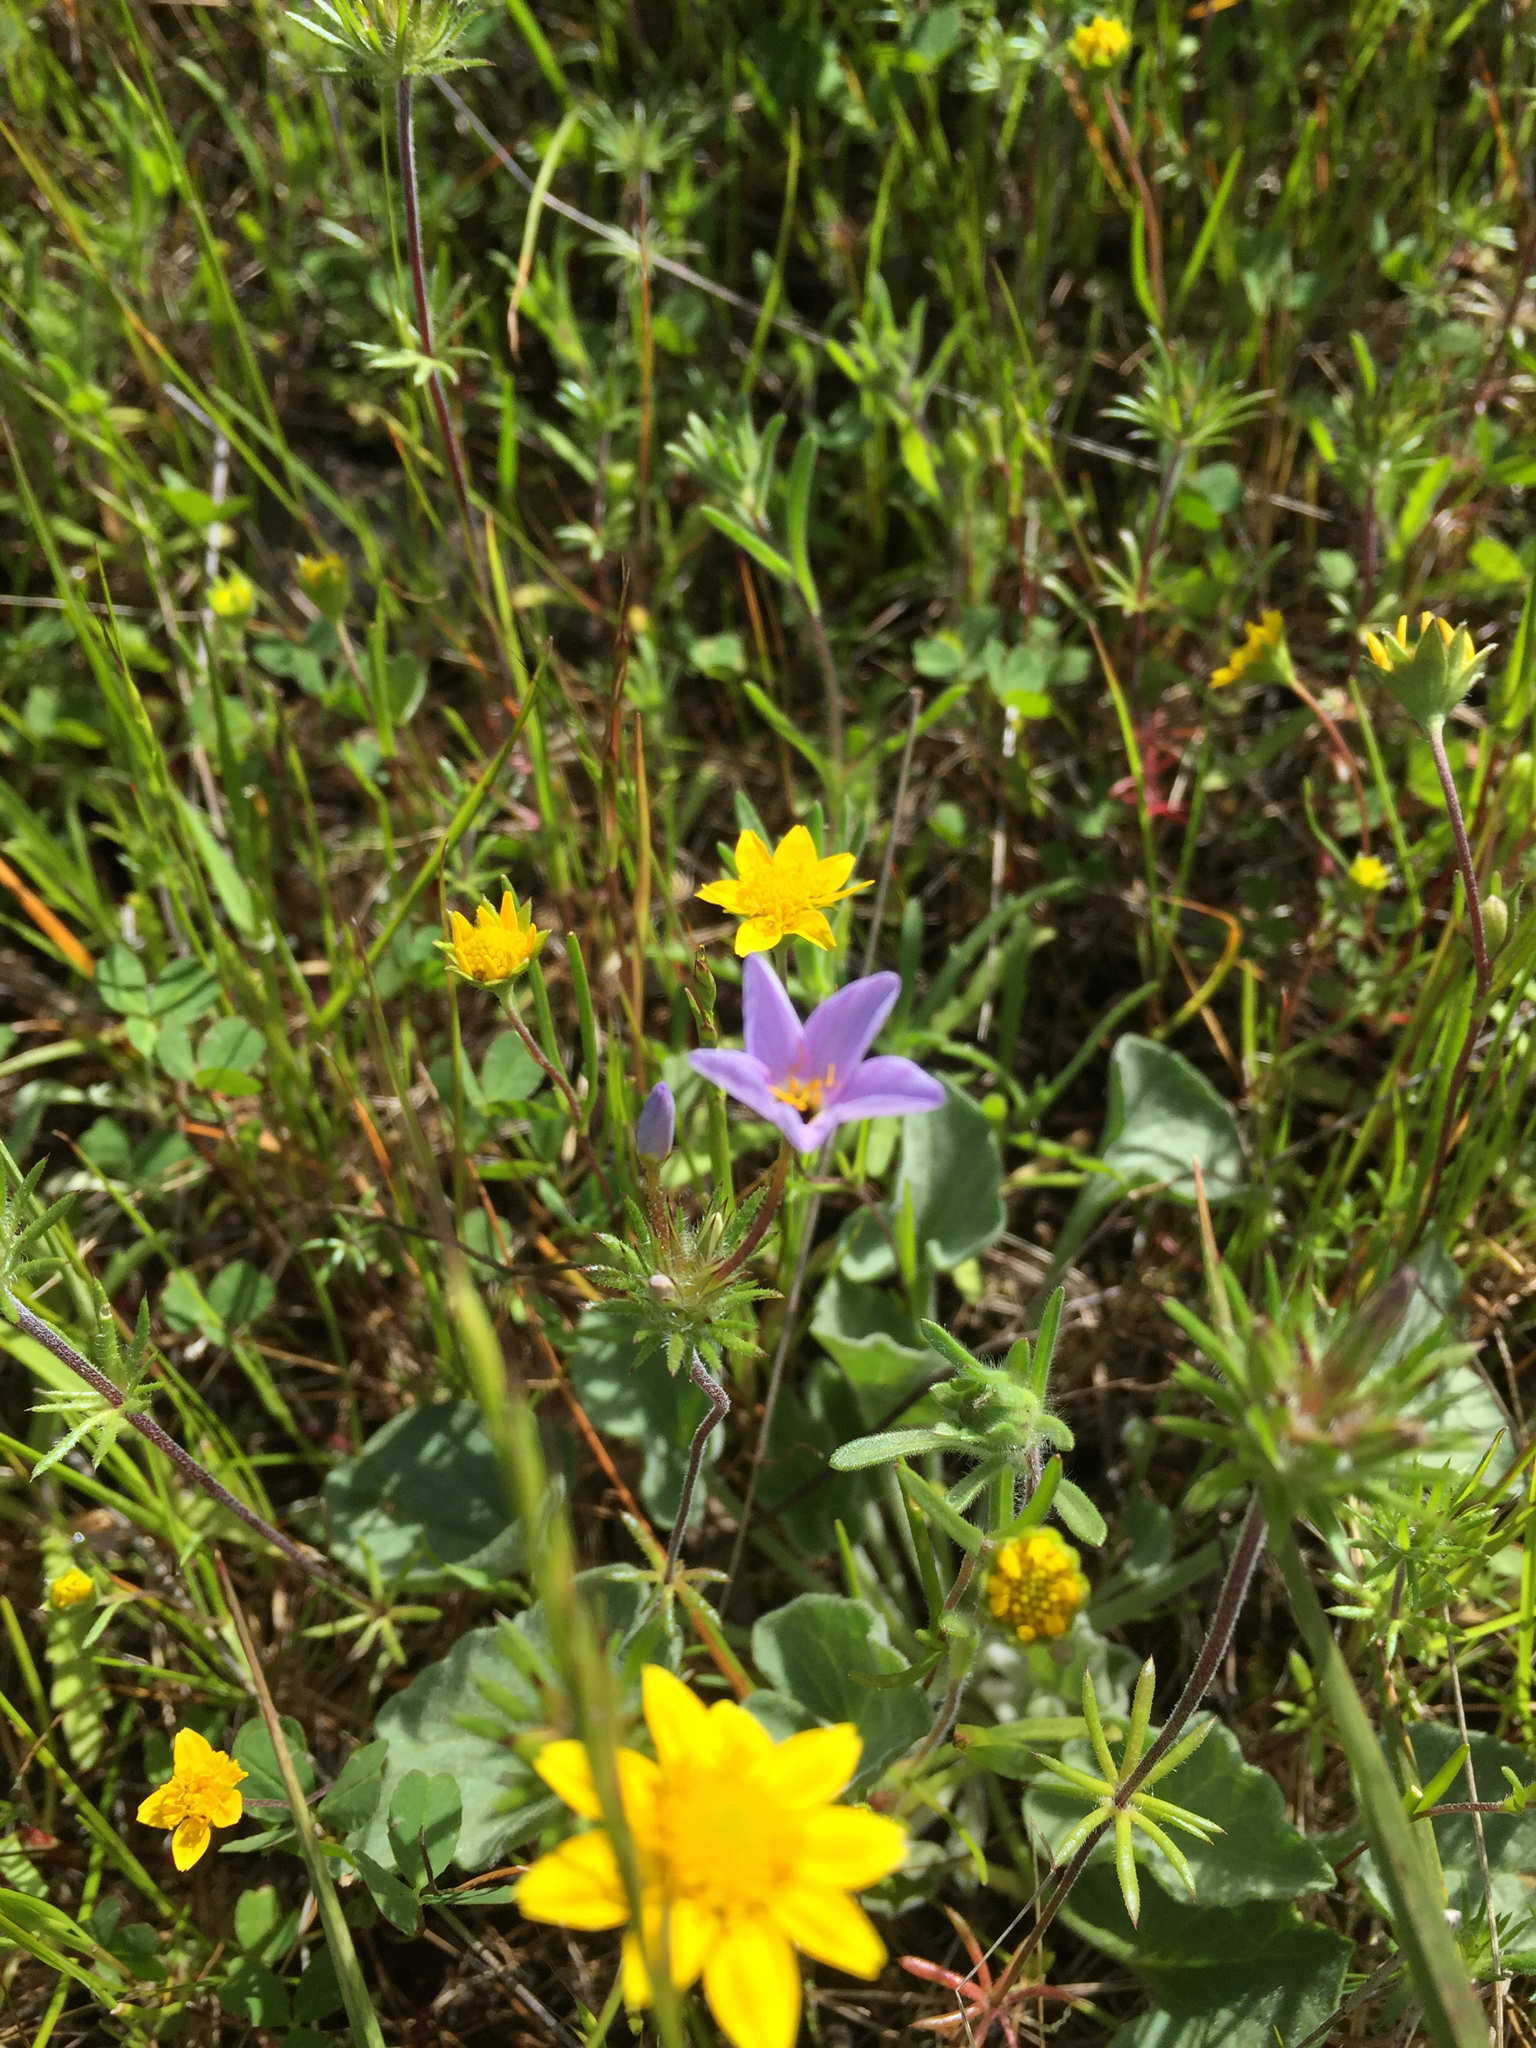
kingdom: Plantae
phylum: Tracheophyta
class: Magnoliopsida
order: Ericales
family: Polemoniaceae
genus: Leptosiphon
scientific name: Leptosiphon androsaceus
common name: False babystars
